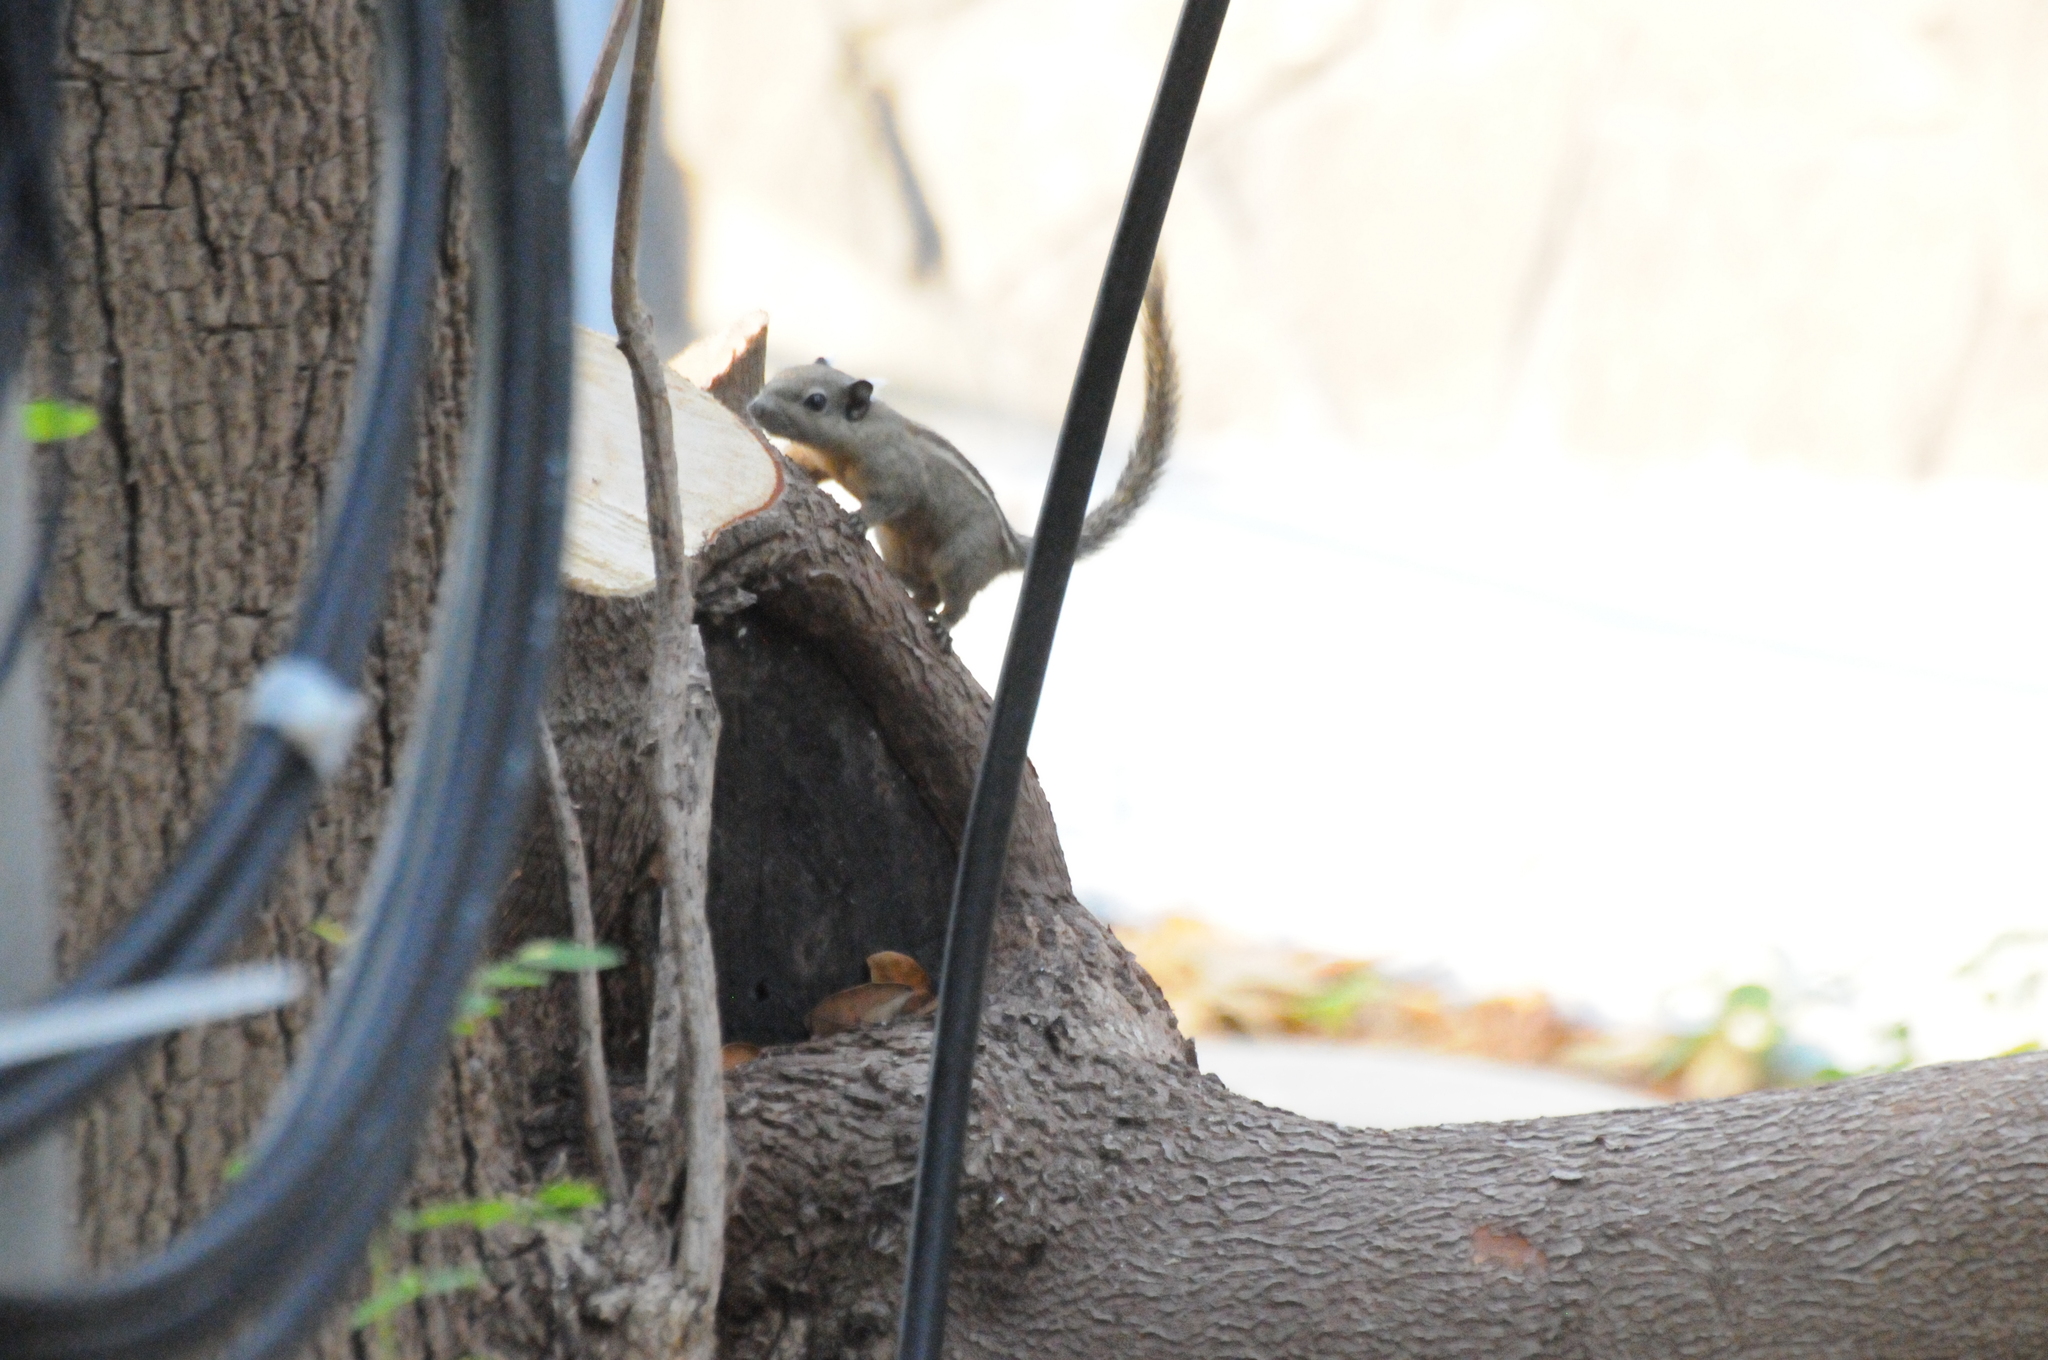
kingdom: Animalia
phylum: Chordata
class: Mammalia
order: Rodentia
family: Sciuridae
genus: Tamiops
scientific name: Tamiops rodolphii
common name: Cambodian striped squirrel
